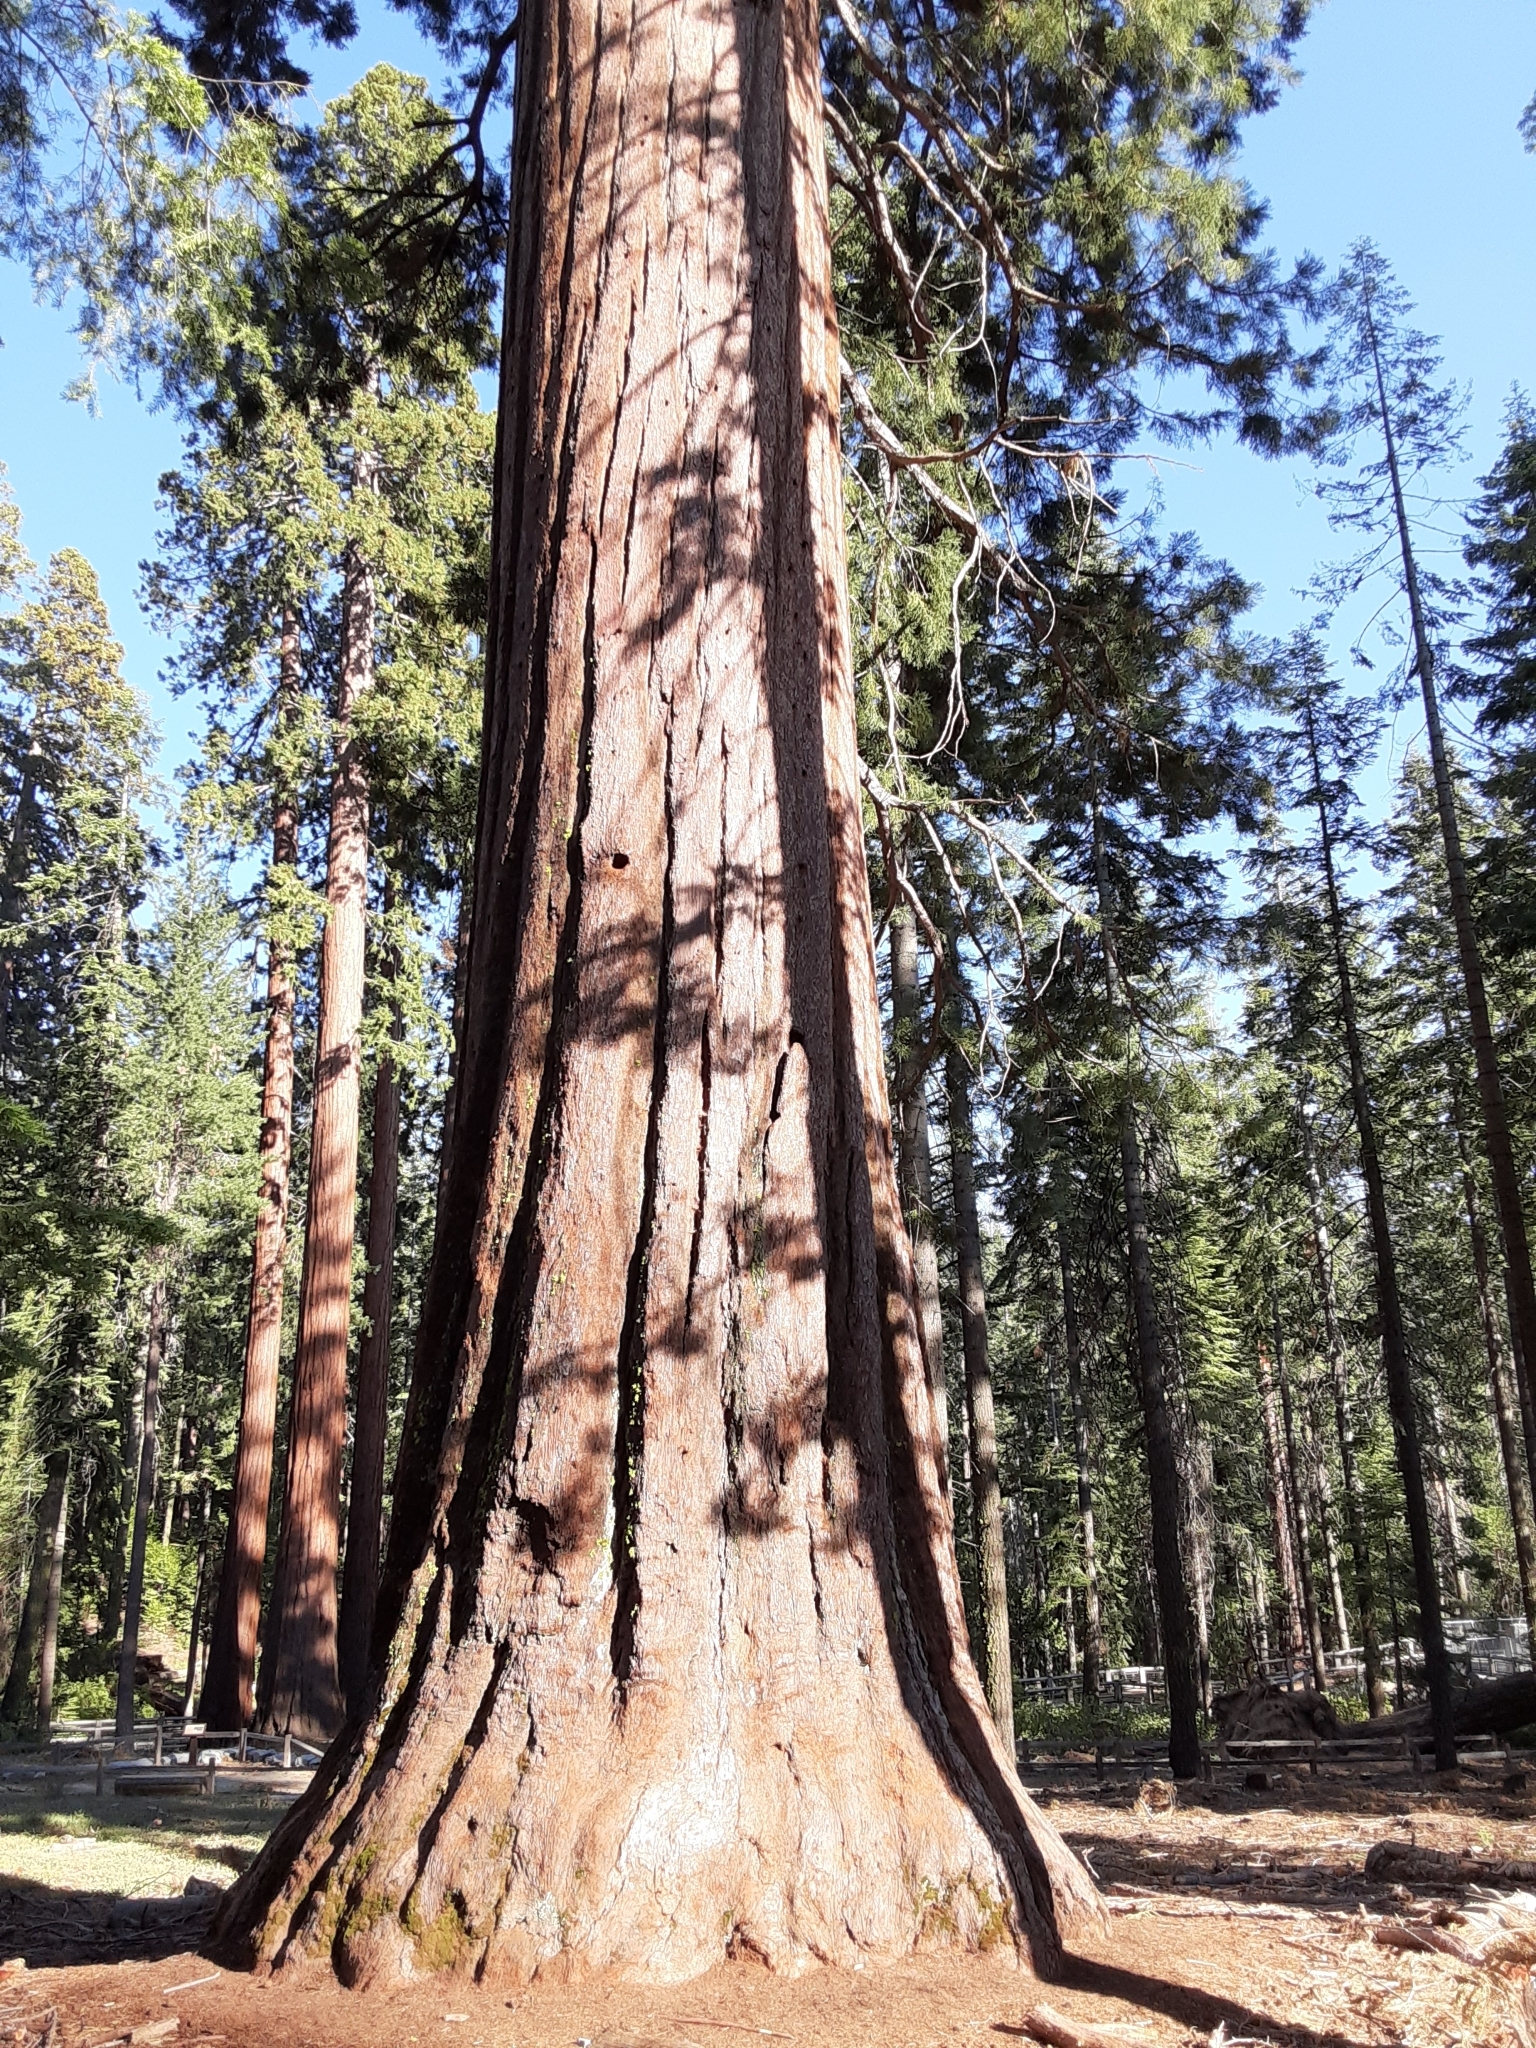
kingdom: Plantae
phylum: Tracheophyta
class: Pinopsida
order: Pinales
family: Cupressaceae
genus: Sequoiadendron
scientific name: Sequoiadendron giganteum
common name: Wellingtonia
